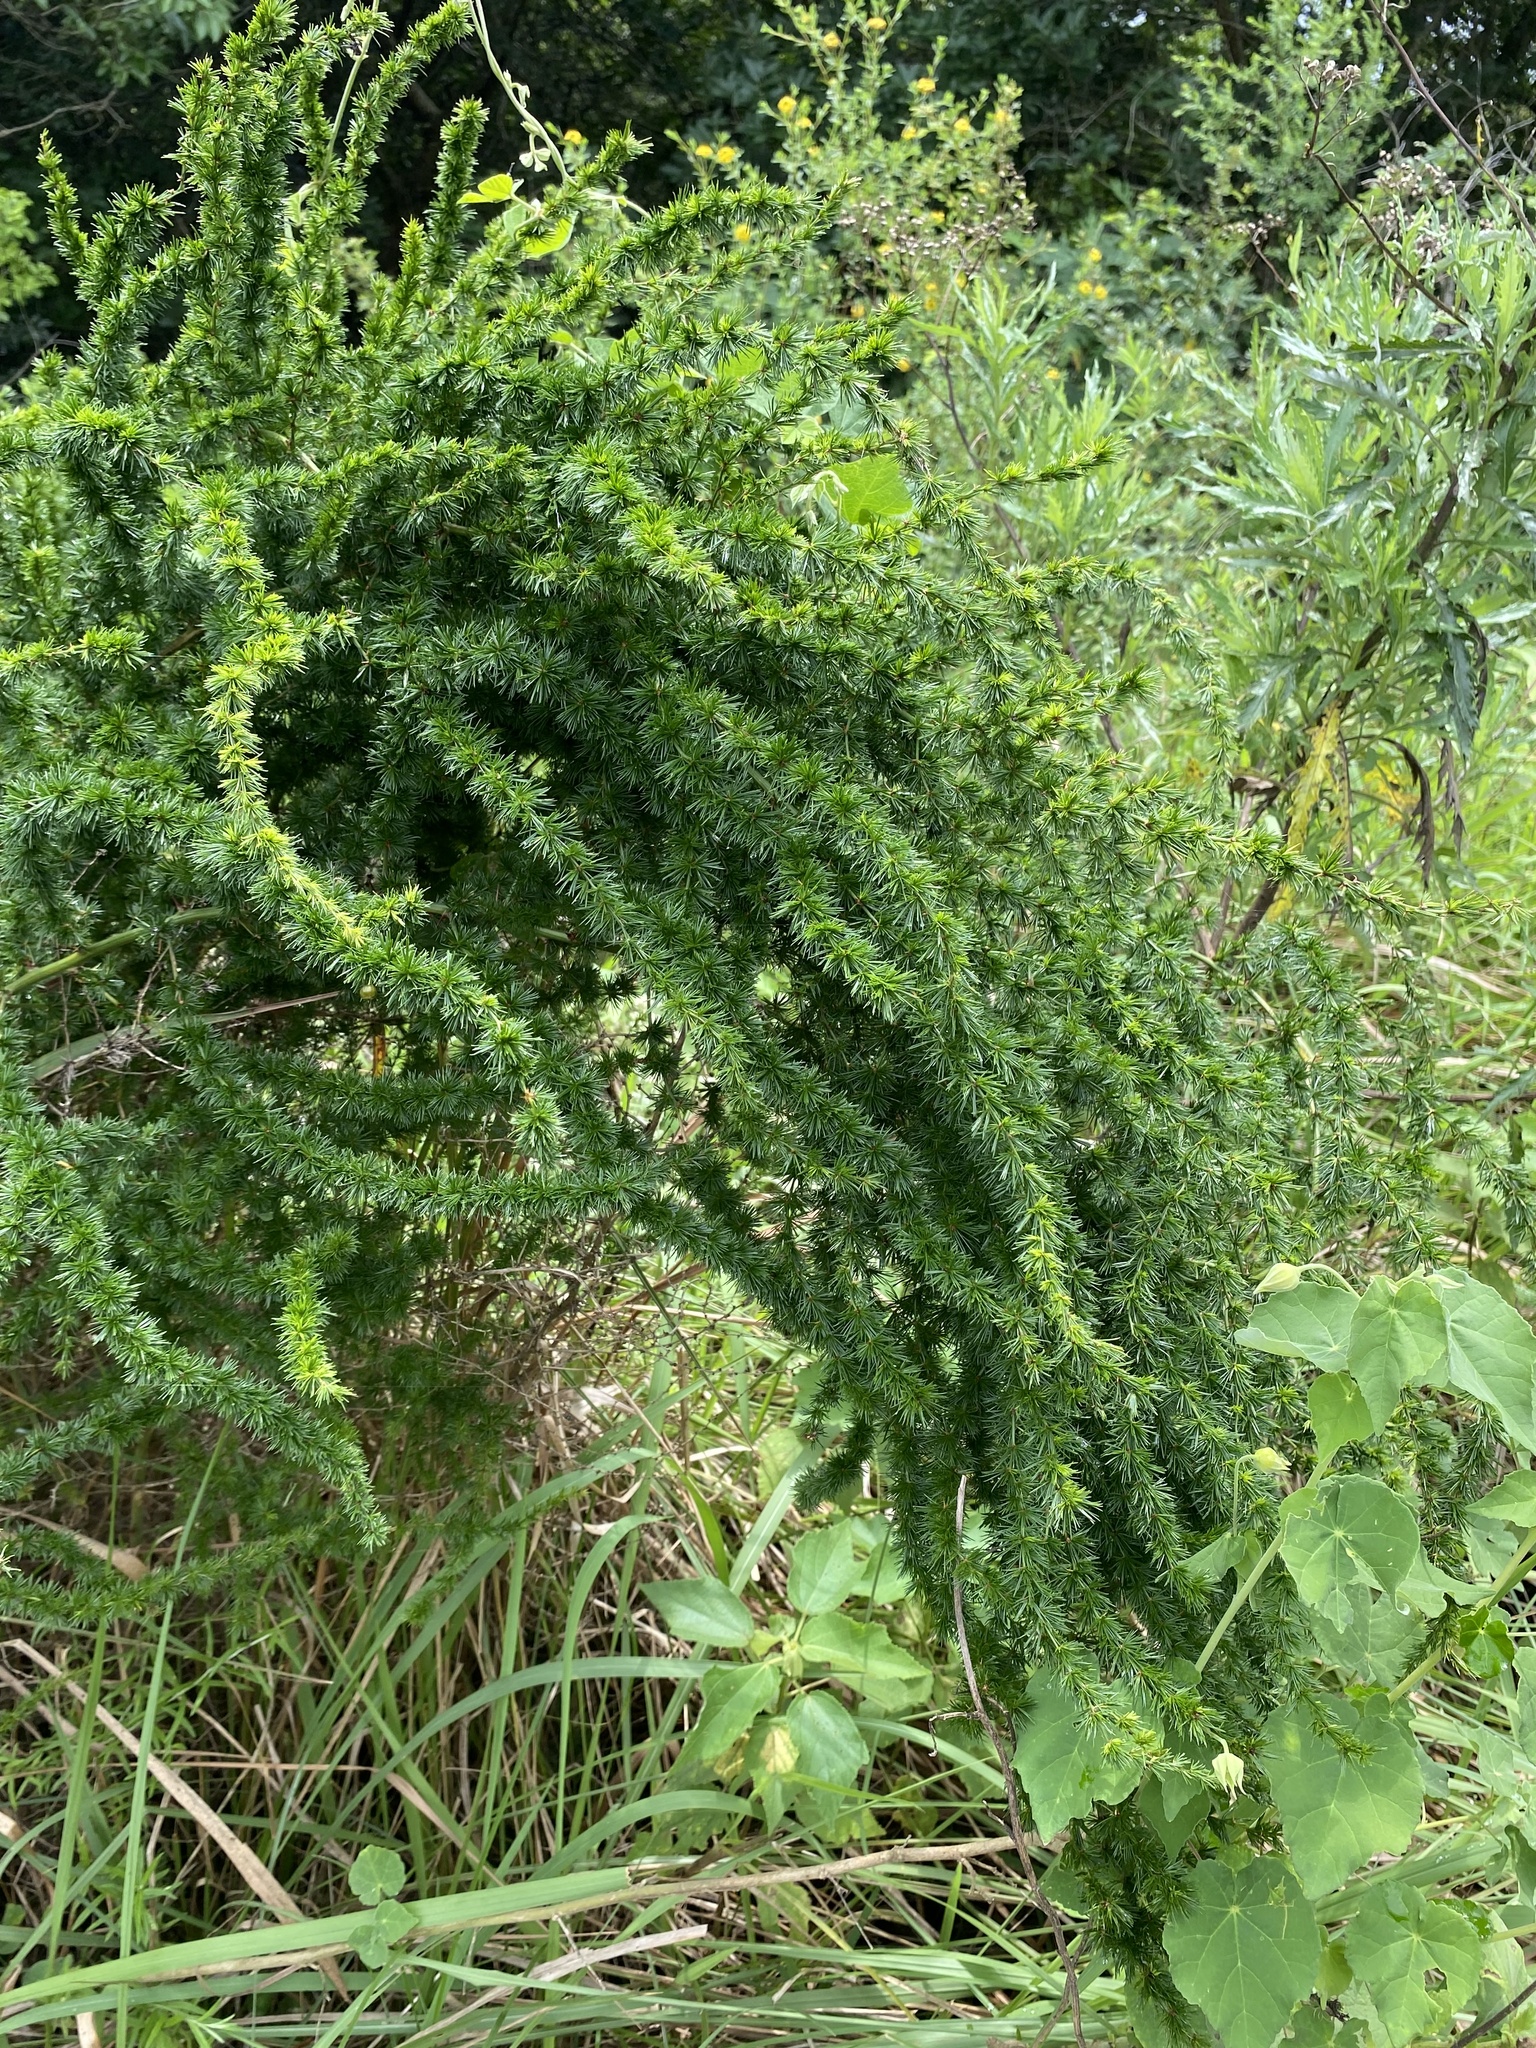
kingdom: Plantae
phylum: Tracheophyta
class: Liliopsida
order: Asparagales
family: Asparagaceae
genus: Asparagus
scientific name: Asparagus africanus
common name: Asparagus-fern
